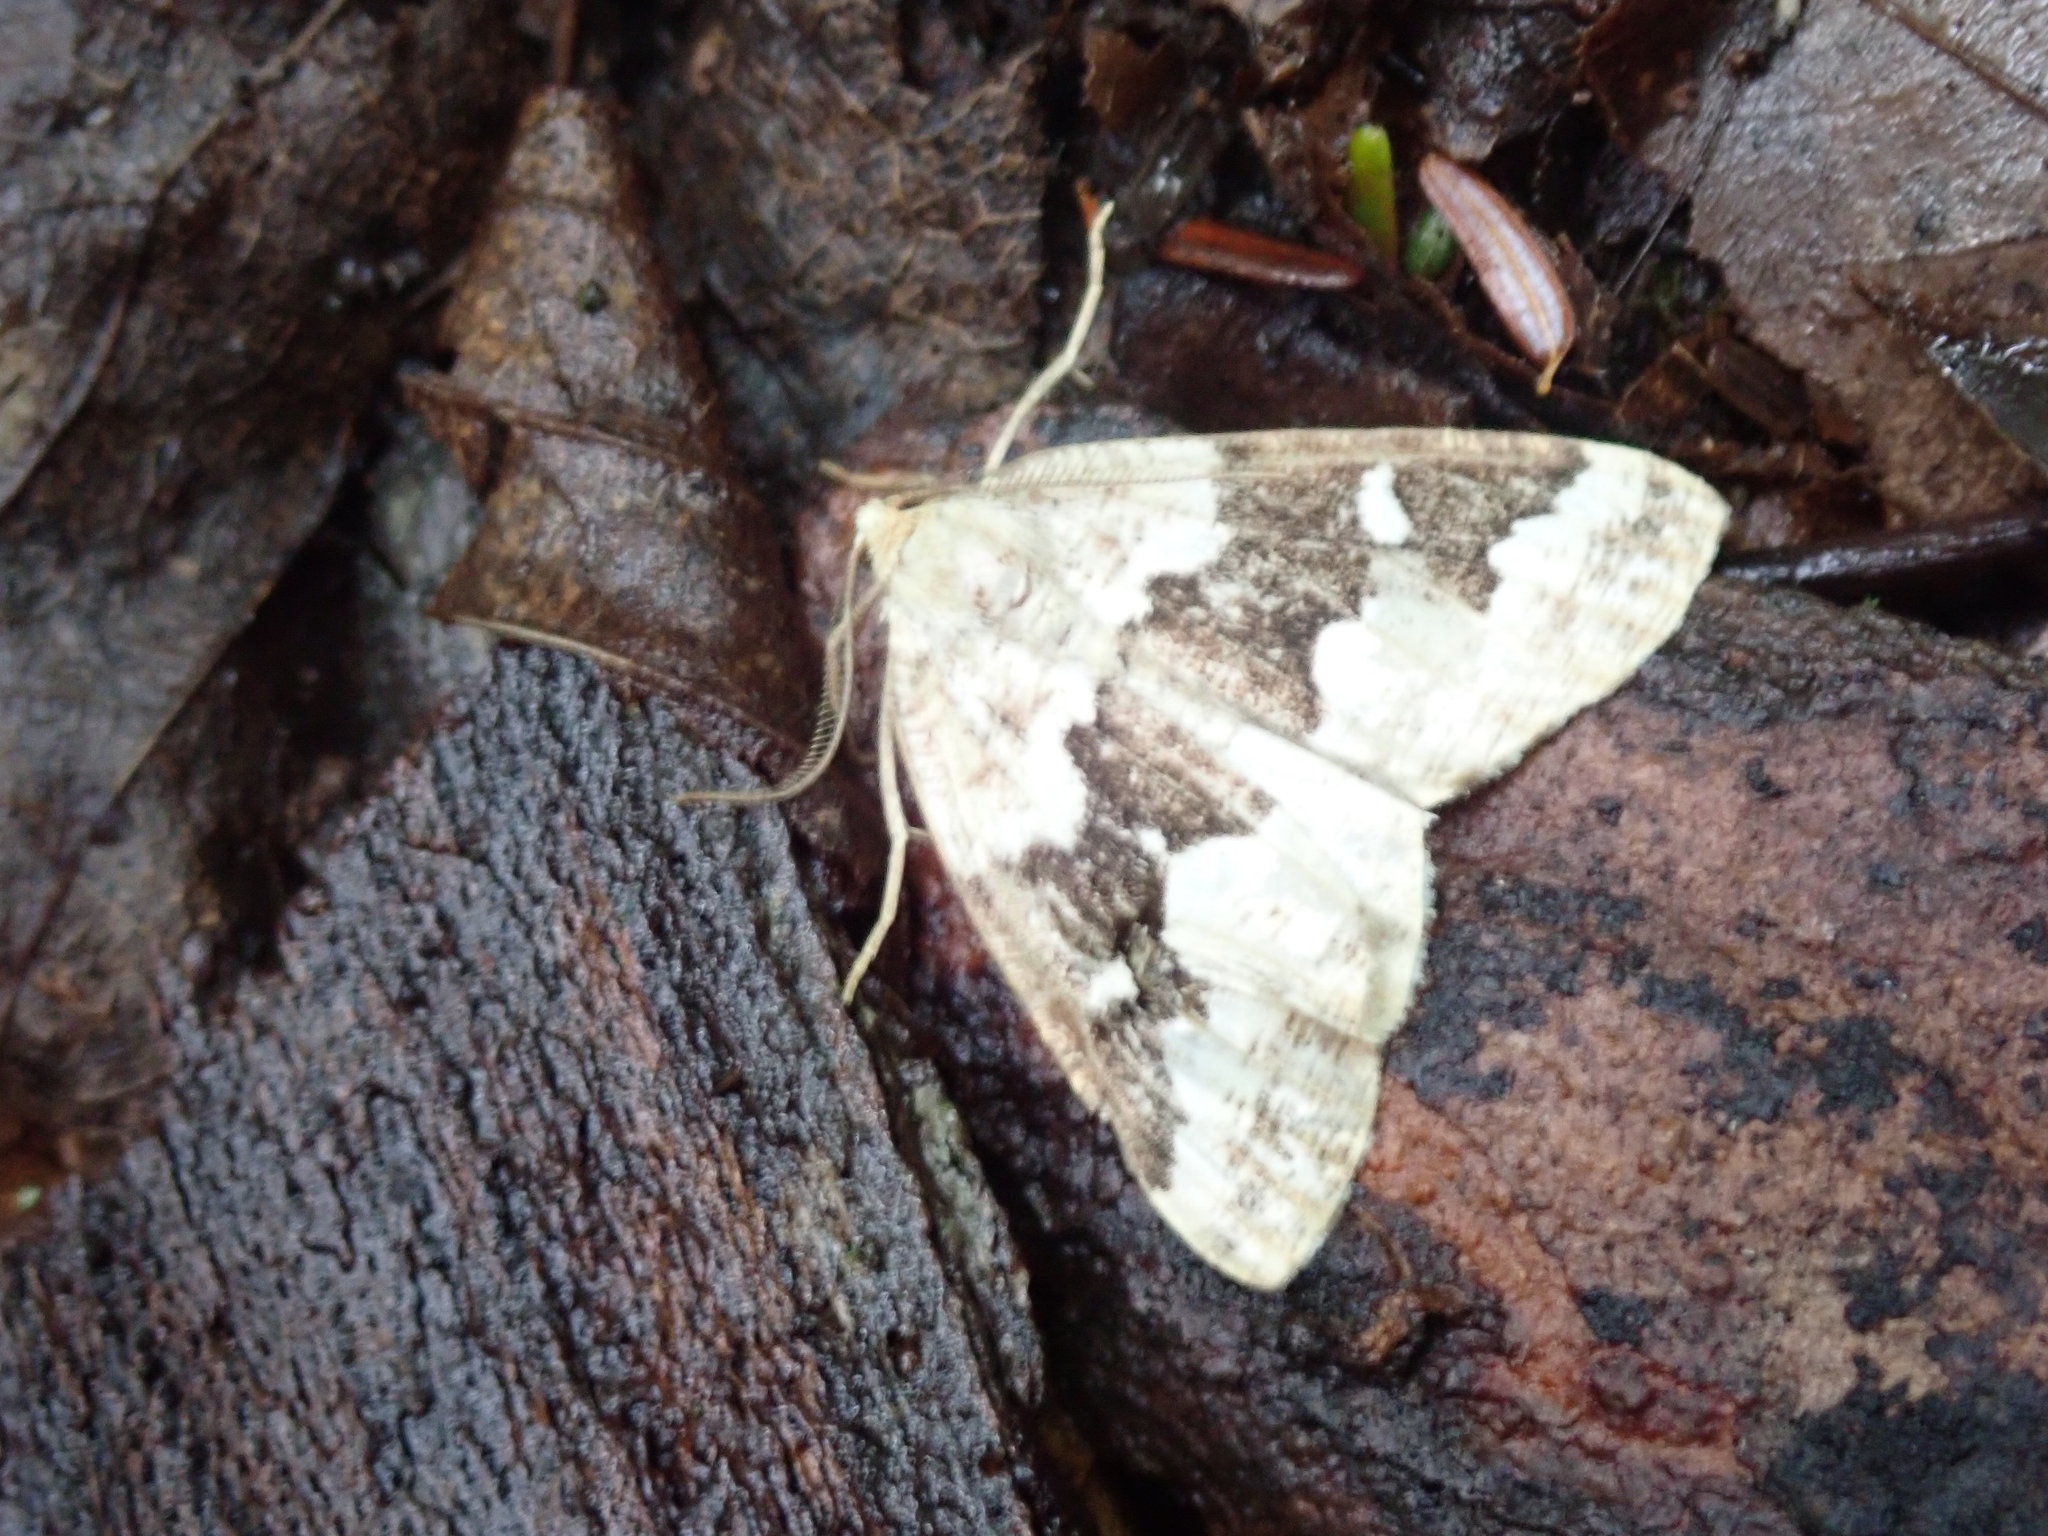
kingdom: Animalia
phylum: Arthropoda
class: Insecta
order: Lepidoptera
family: Geometridae
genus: Caripeta
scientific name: Caripeta divisata
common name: Gray spruce looper
